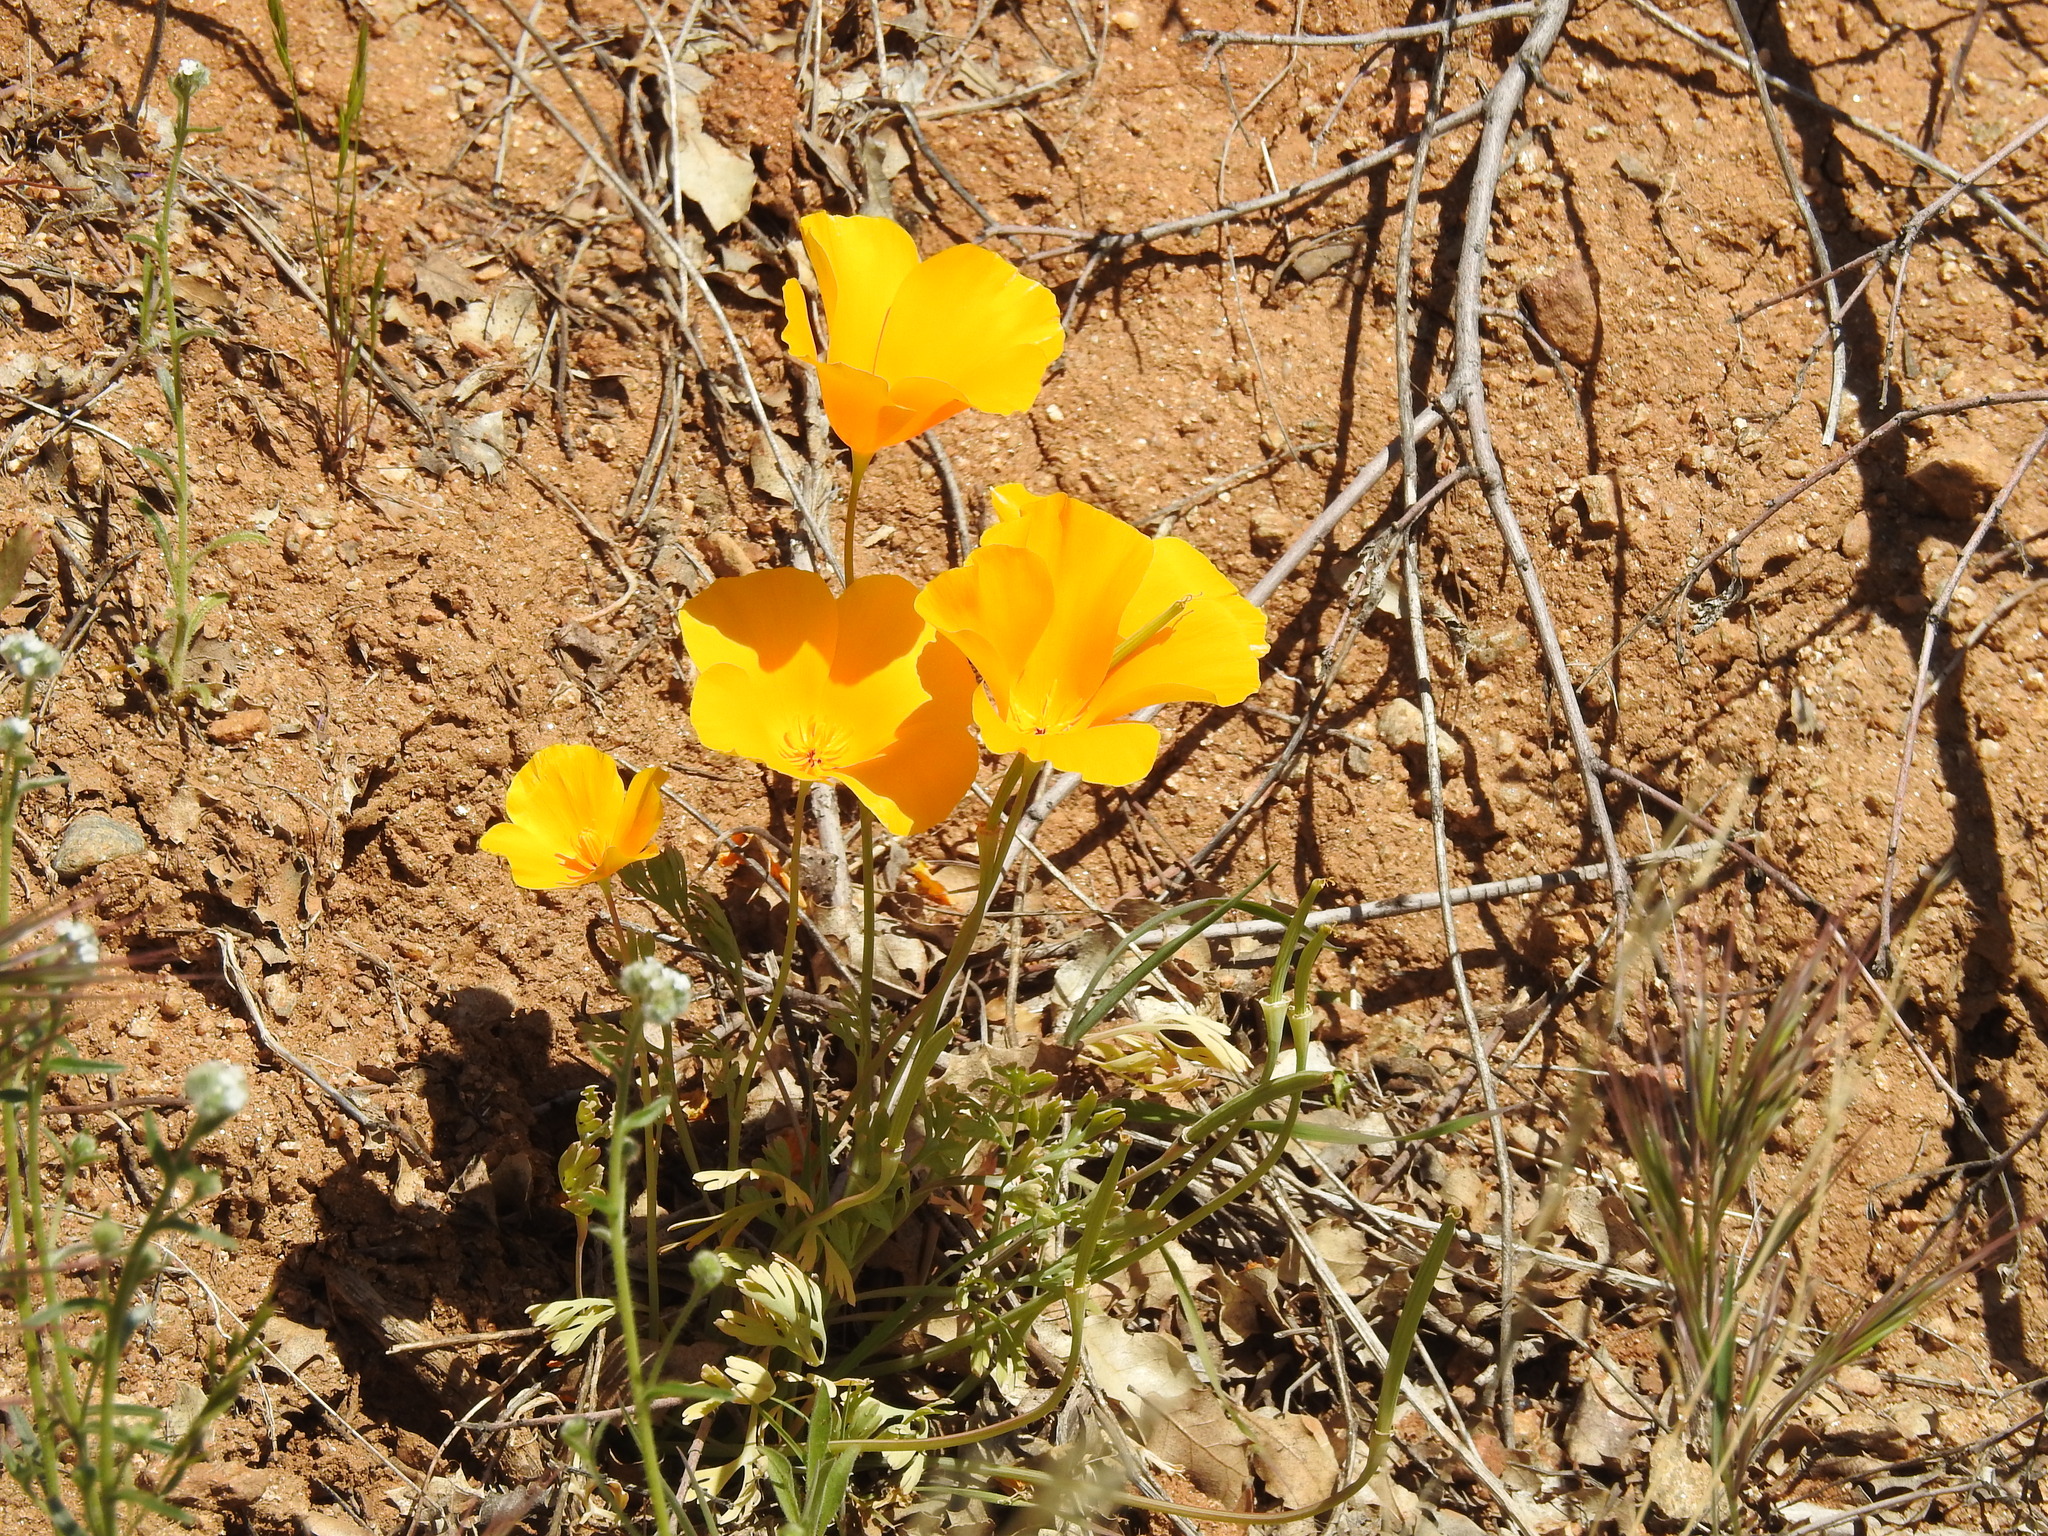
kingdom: Plantae
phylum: Tracheophyta
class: Magnoliopsida
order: Ranunculales
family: Papaveraceae
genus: Eschscholzia
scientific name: Eschscholzia californica
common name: California poppy
